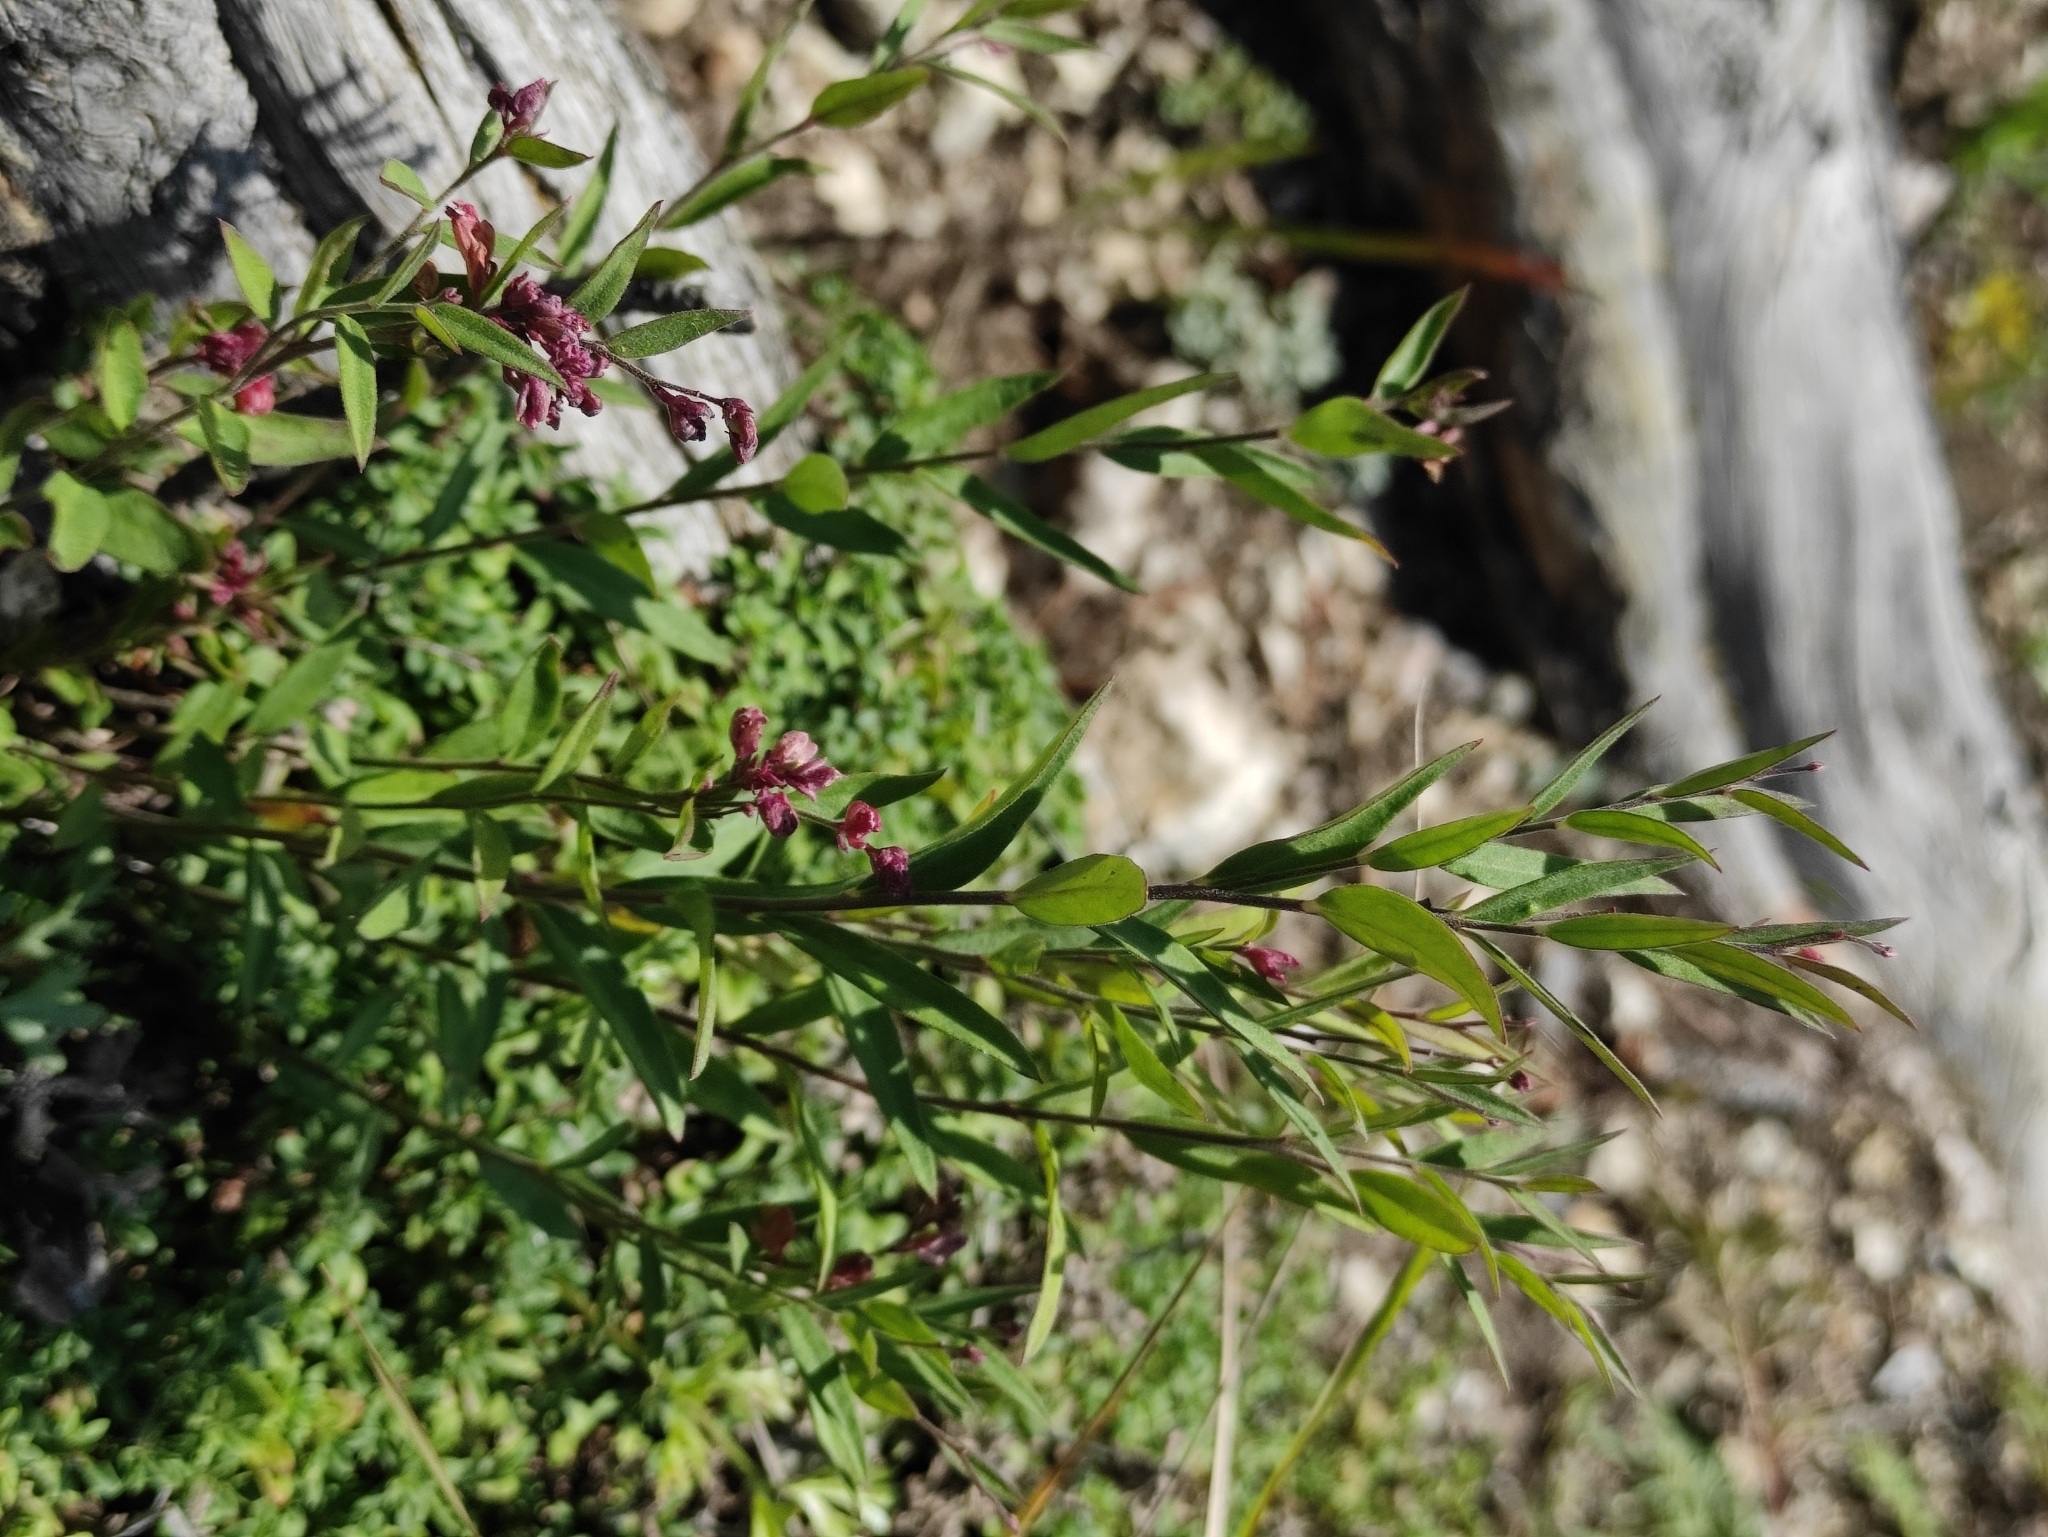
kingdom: Plantae
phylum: Tracheophyta
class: Magnoliopsida
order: Fabales
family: Polygalaceae
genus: Polygala
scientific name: Polygala sibirica
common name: Siberian polygala
